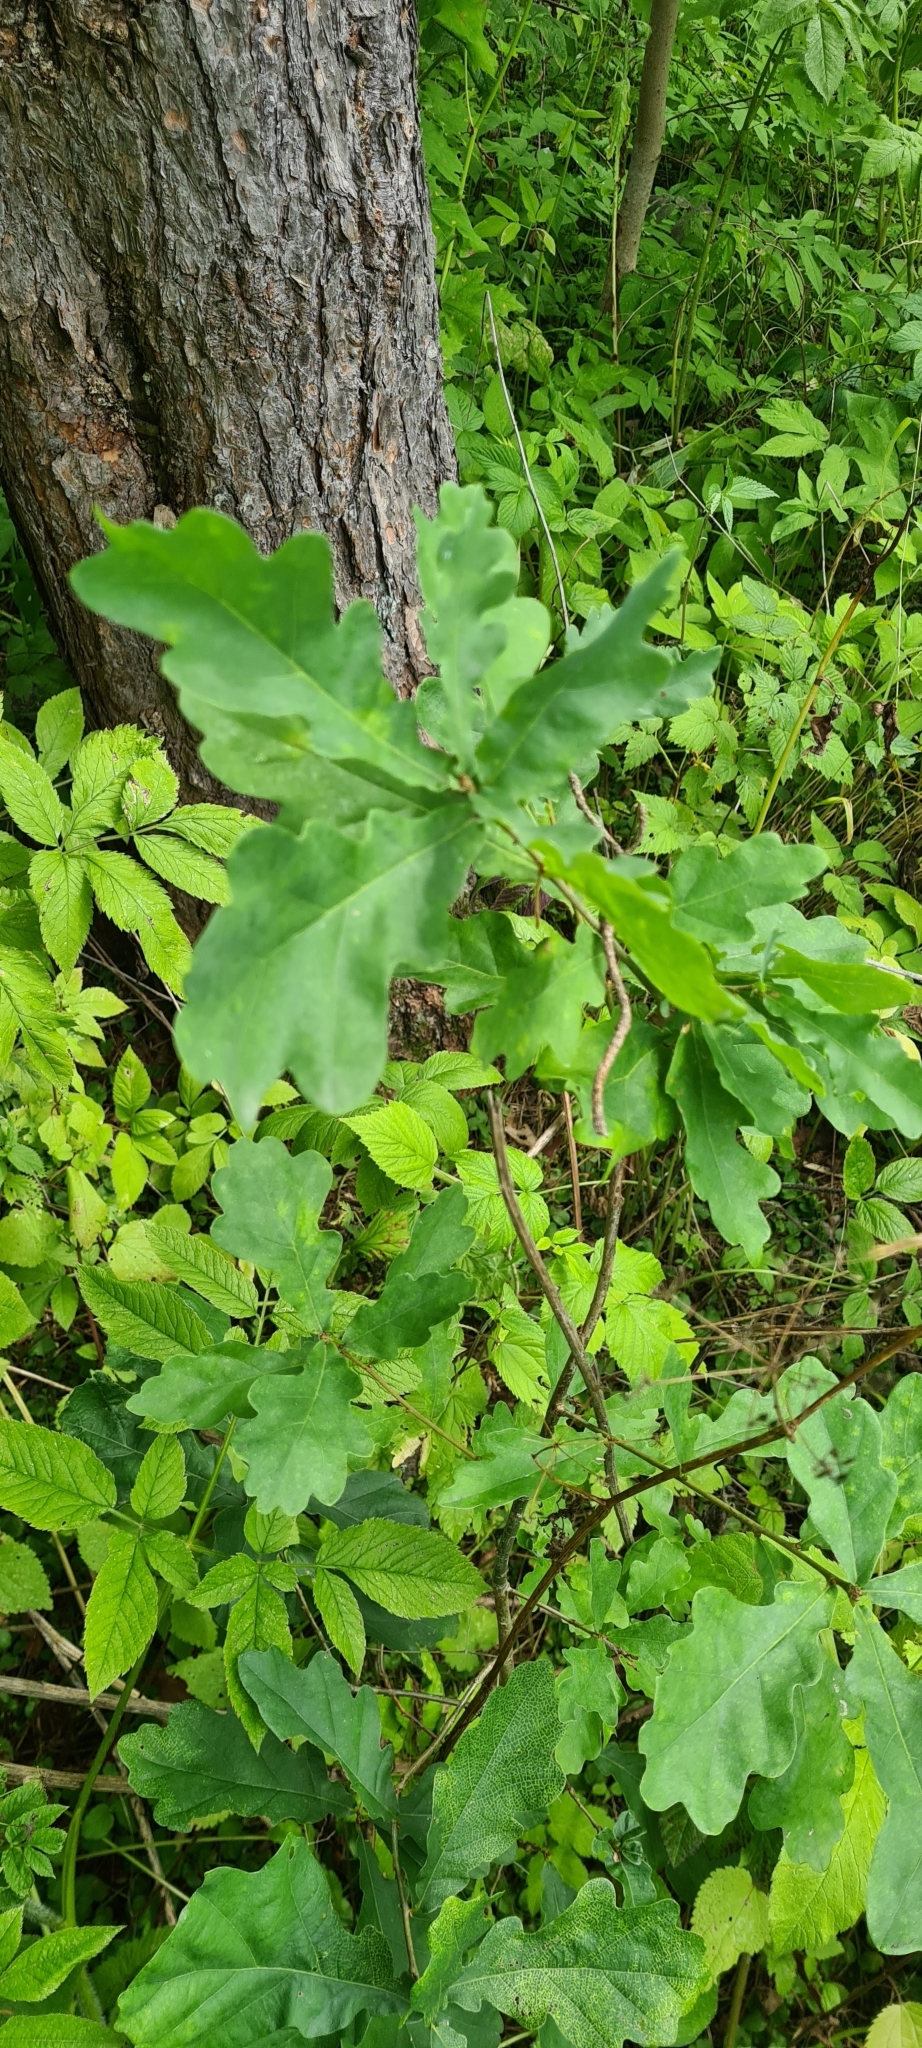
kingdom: Plantae
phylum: Tracheophyta
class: Magnoliopsida
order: Fagales
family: Fagaceae
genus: Quercus
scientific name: Quercus robur
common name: Pedunculate oak
